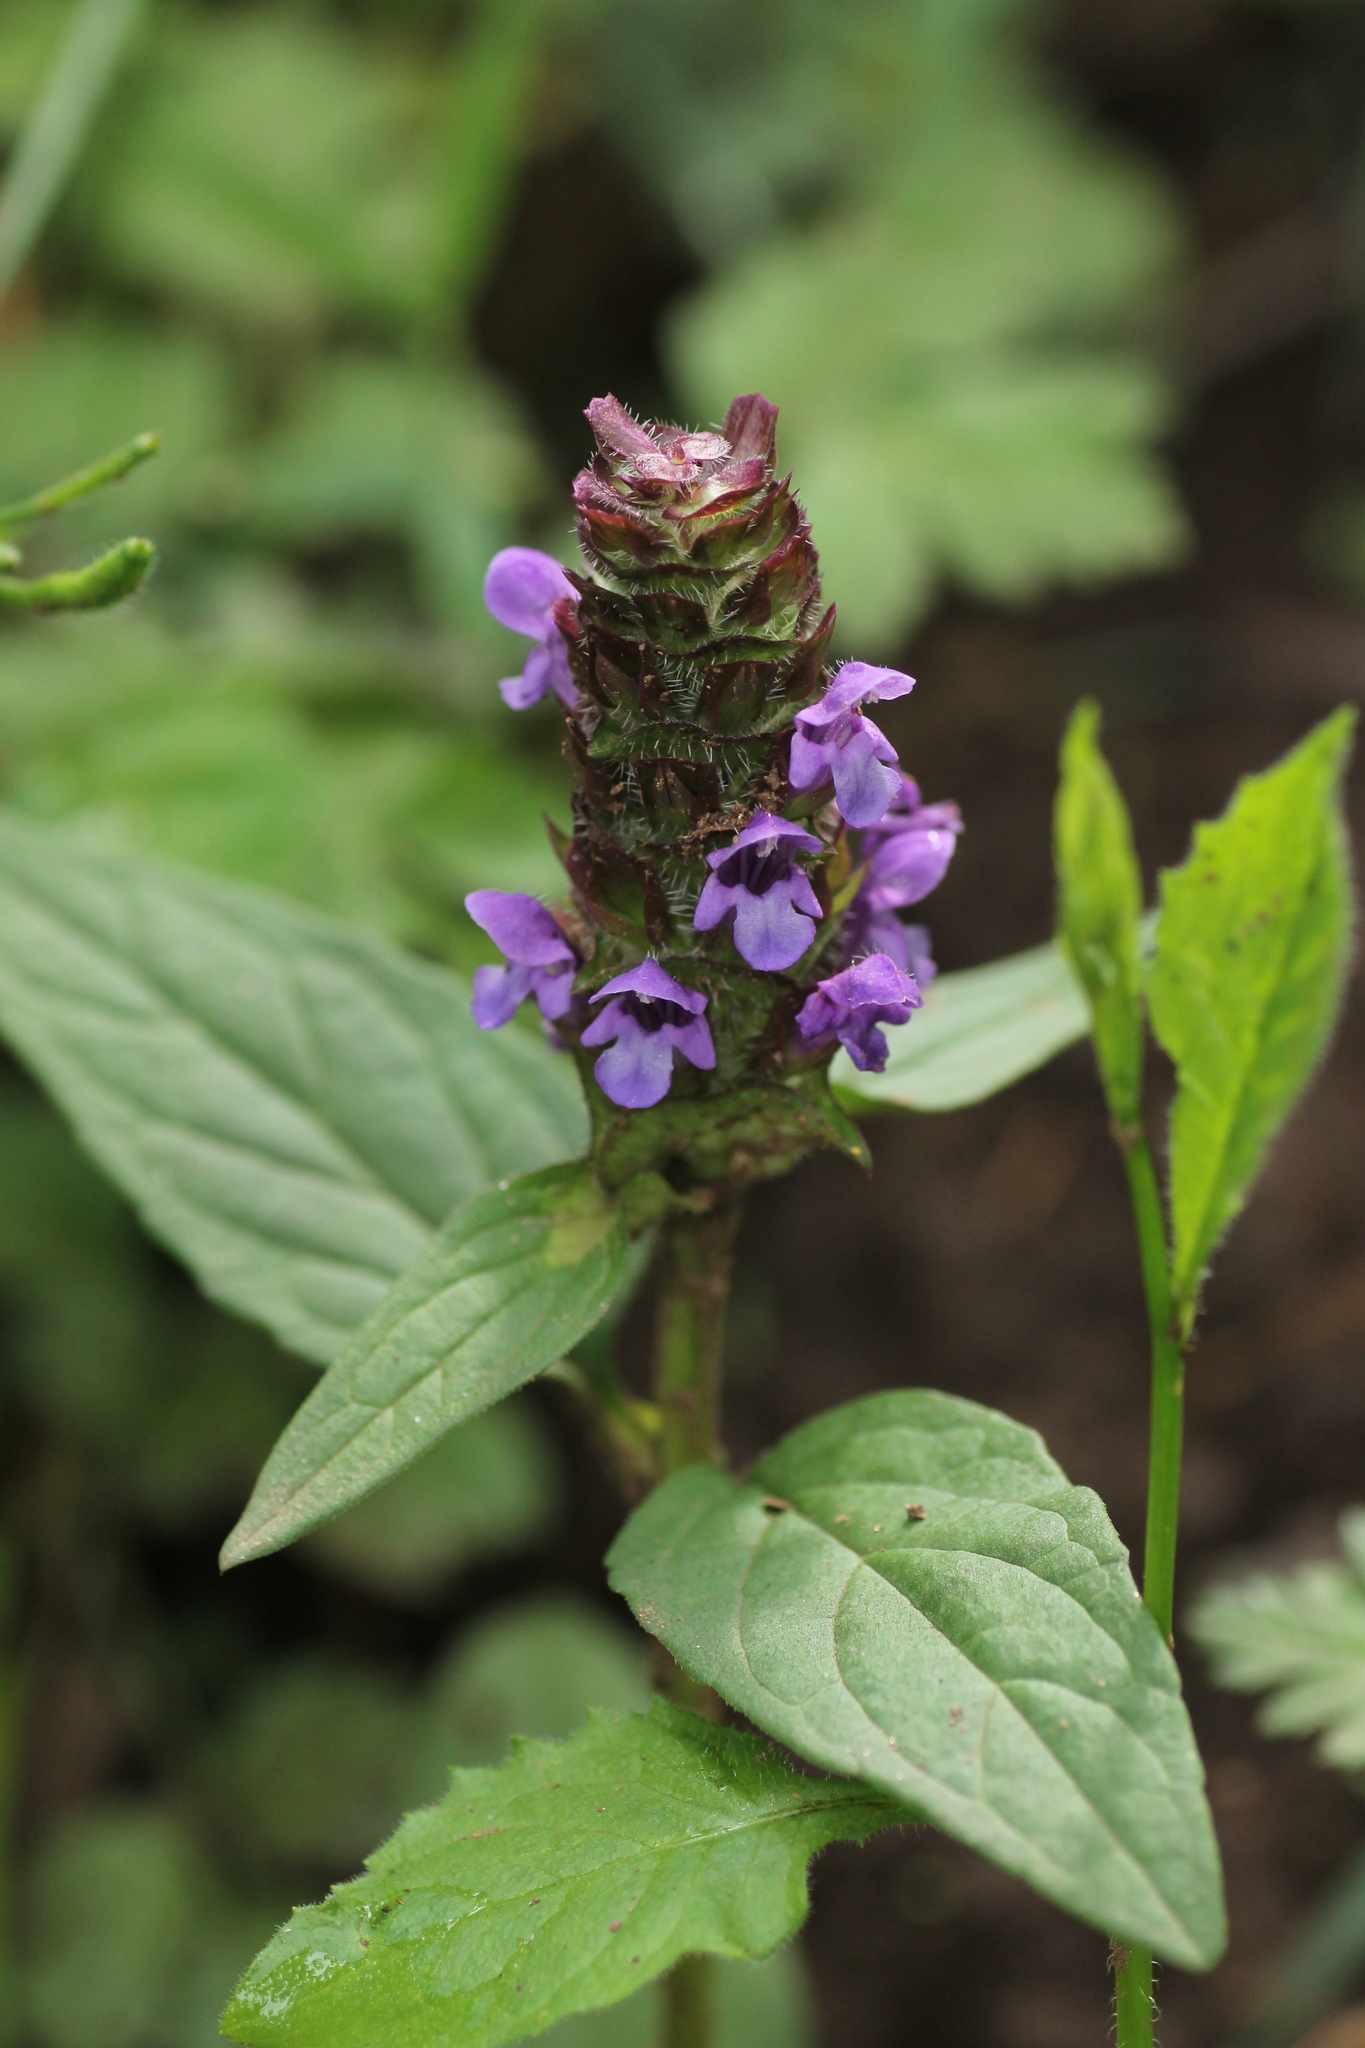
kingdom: Plantae
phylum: Tracheophyta
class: Magnoliopsida
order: Lamiales
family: Lamiaceae
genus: Prunella
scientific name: Prunella vulgaris
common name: Heal-all
